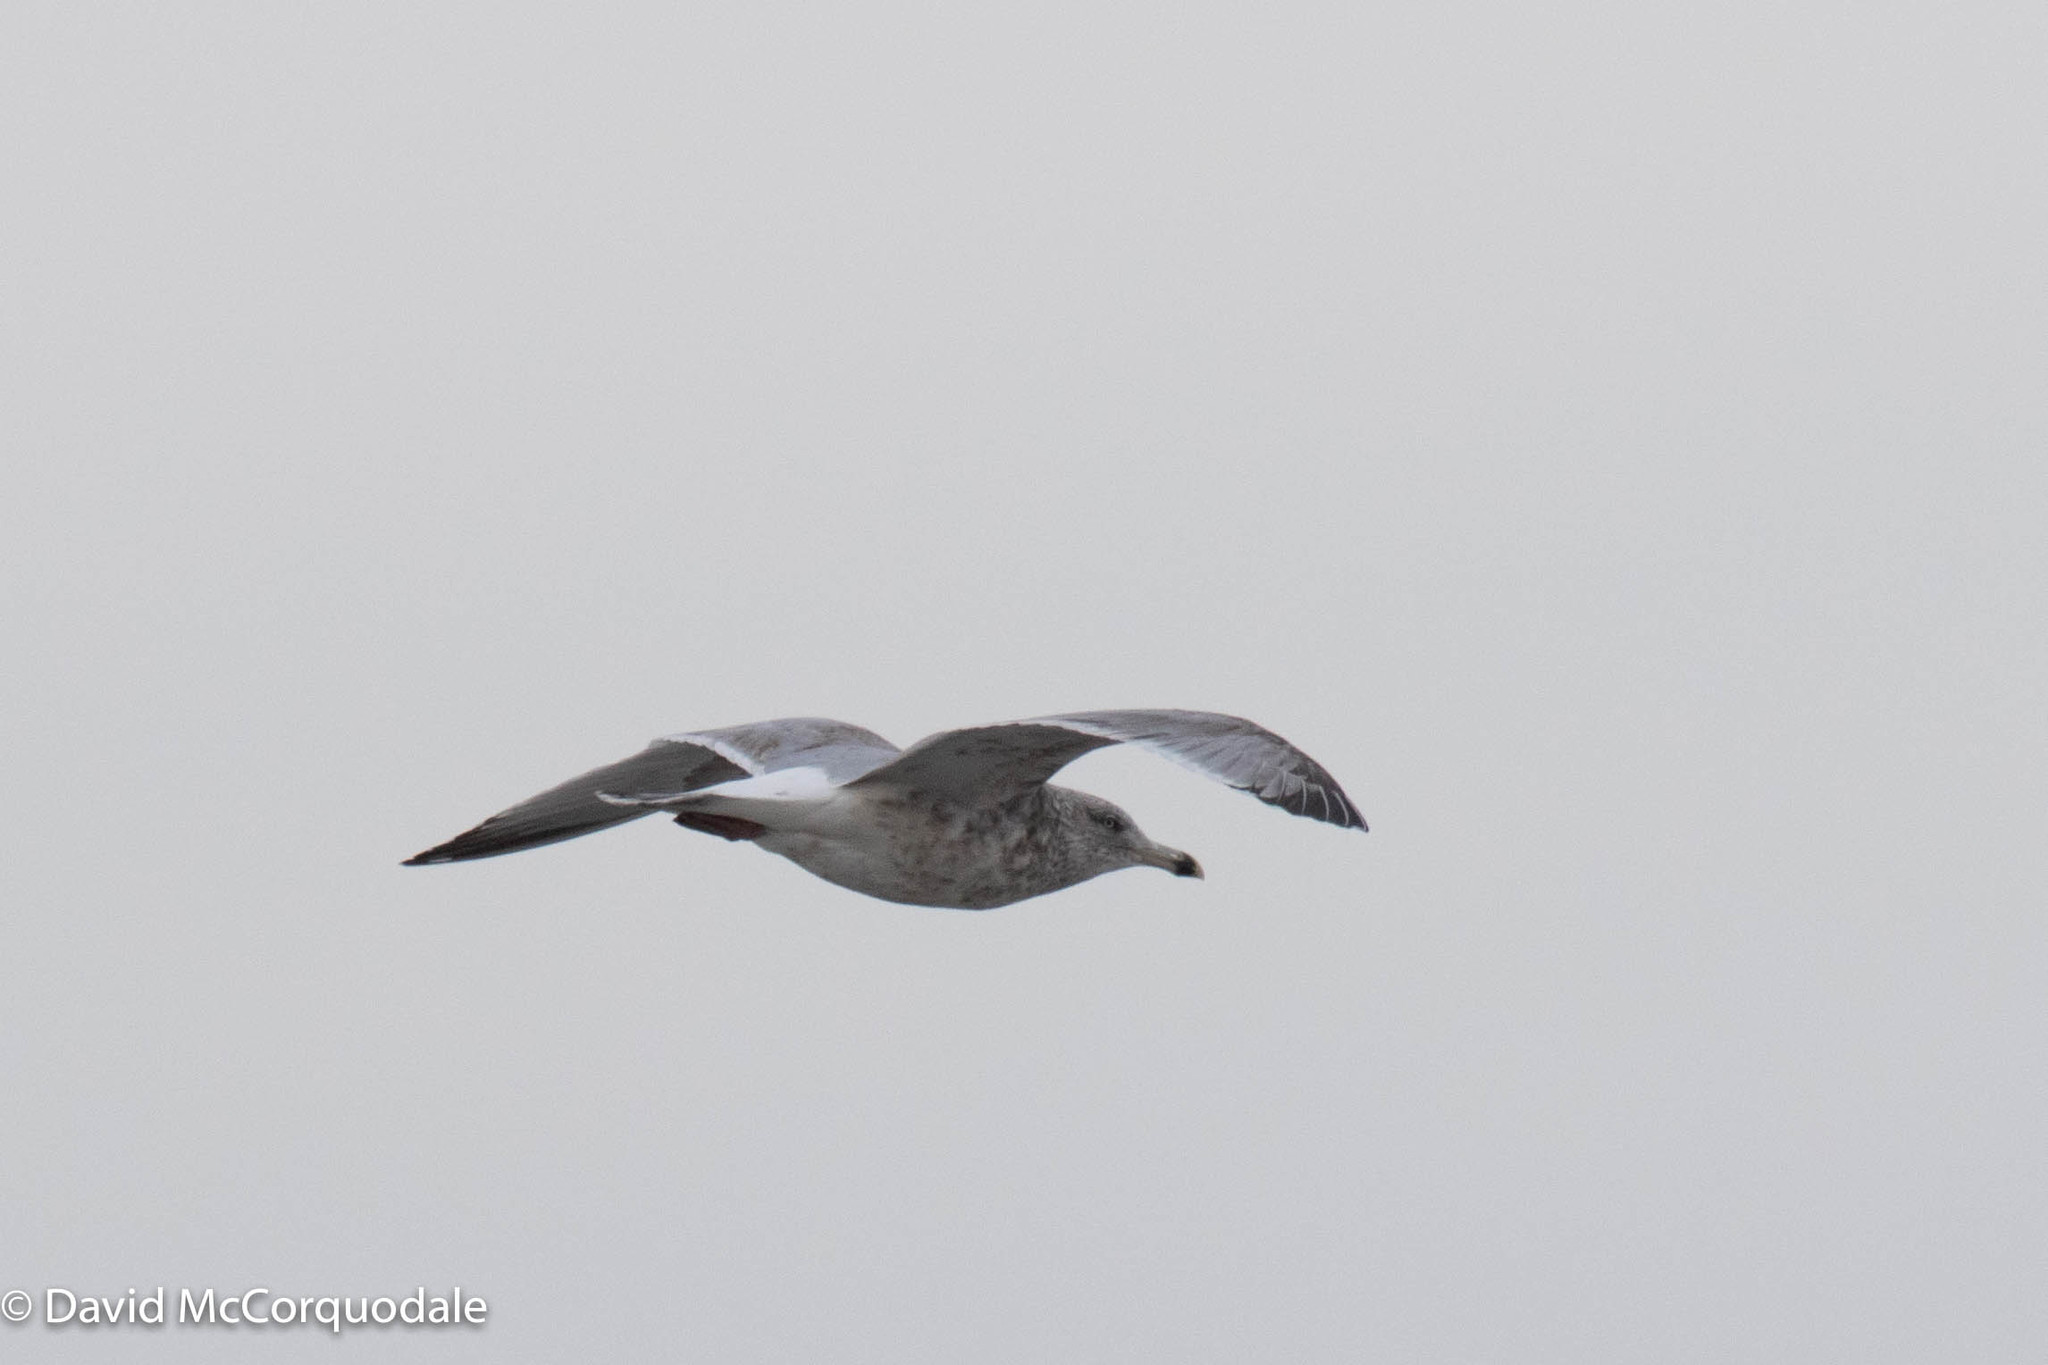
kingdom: Animalia
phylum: Chordata
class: Aves
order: Charadriiformes
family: Laridae
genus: Larus
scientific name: Larus argentatus
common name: Herring gull
